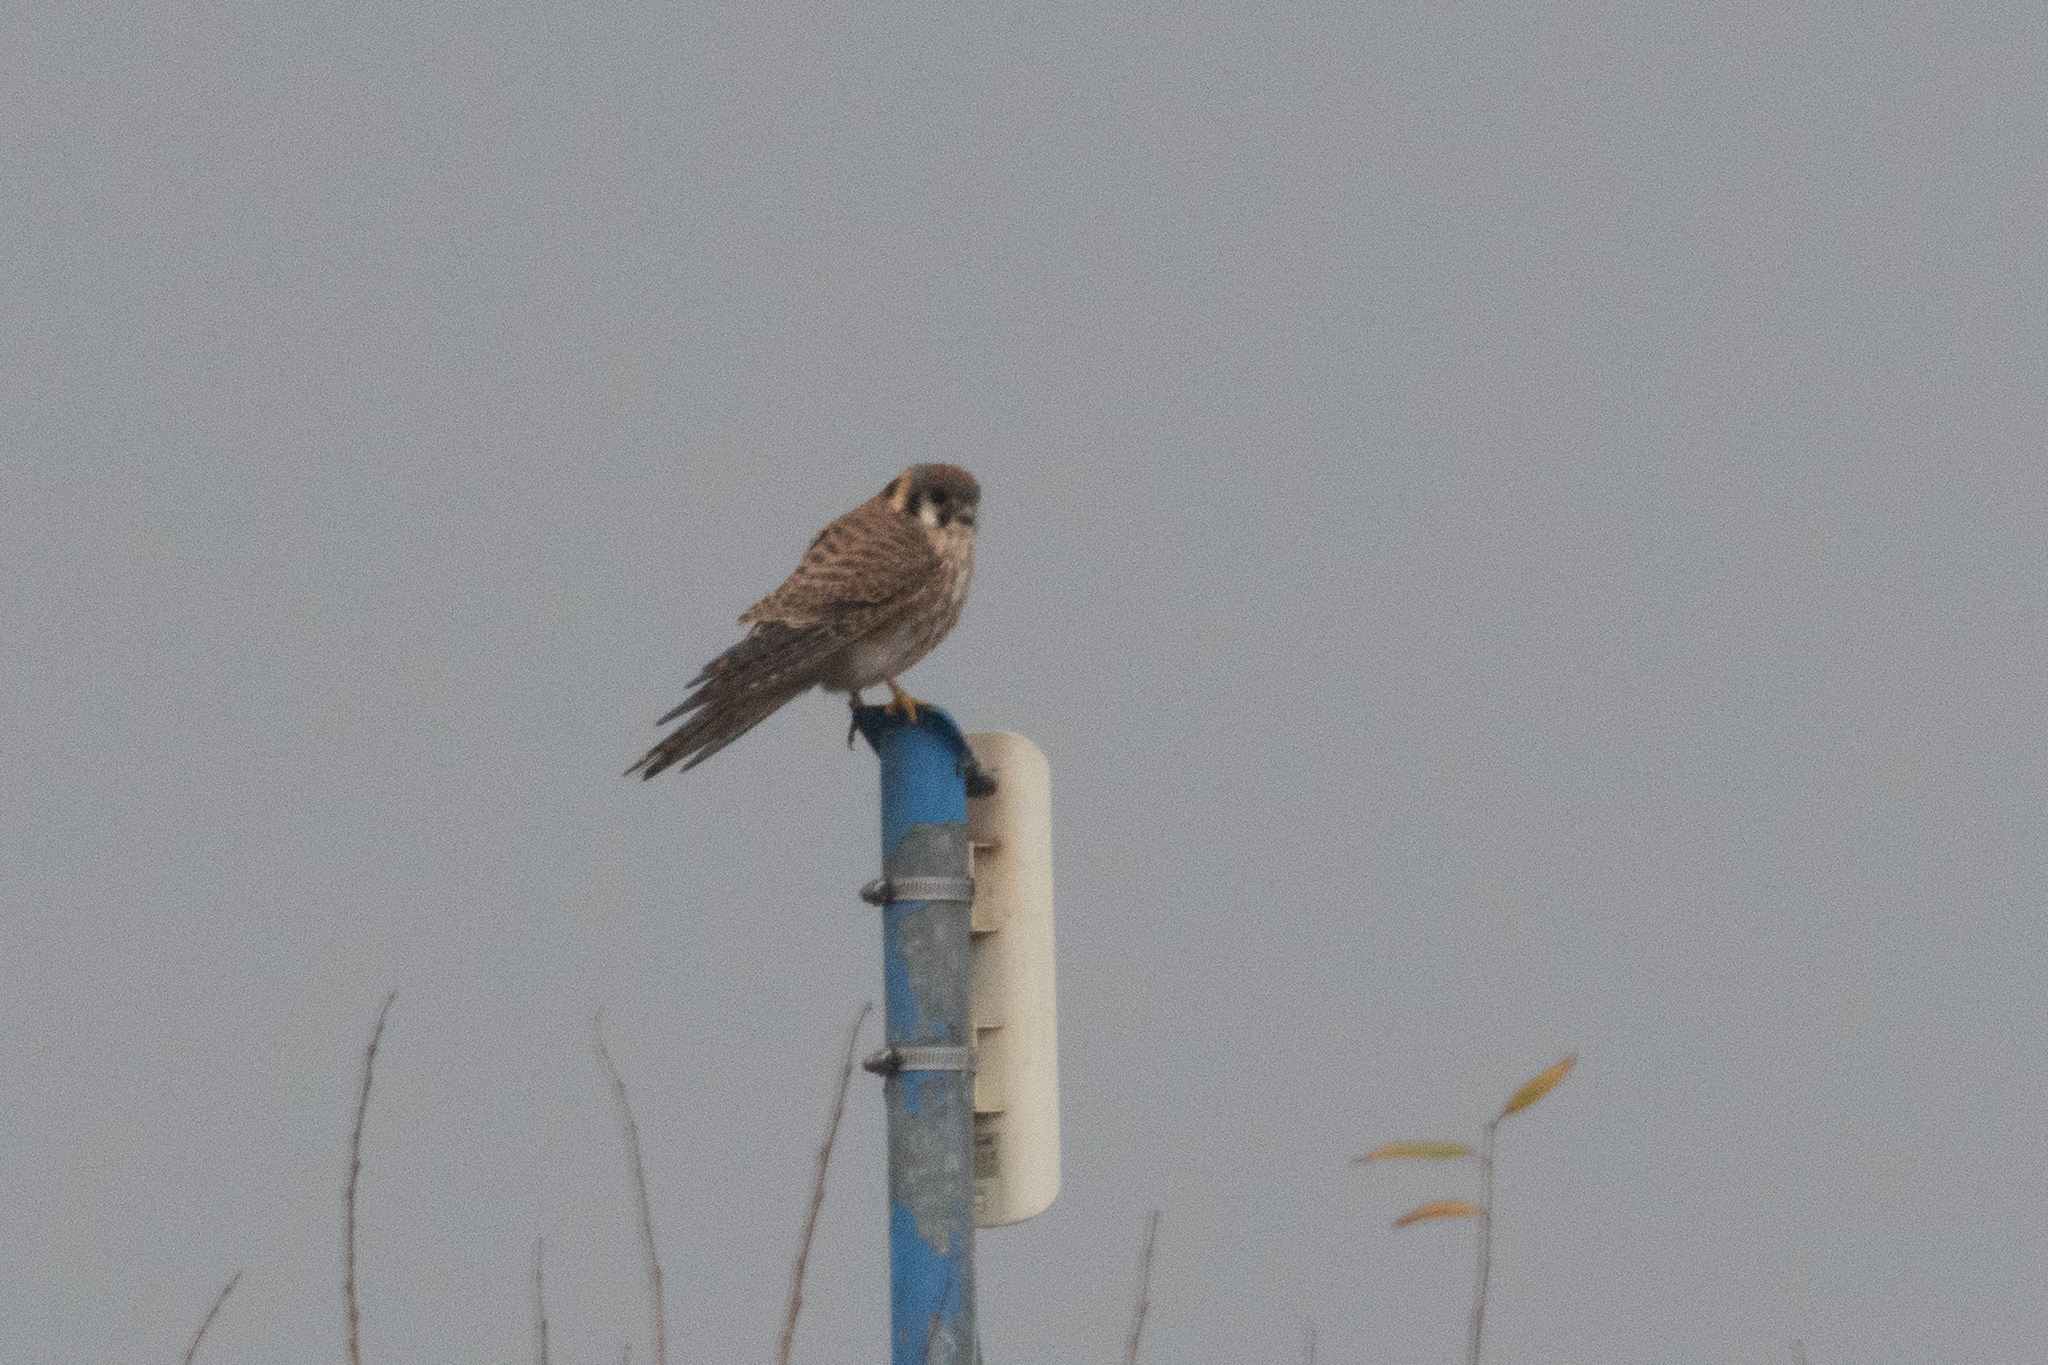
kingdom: Animalia
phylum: Chordata
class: Aves
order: Falconiformes
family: Falconidae
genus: Falco
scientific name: Falco sparverius
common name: American kestrel
